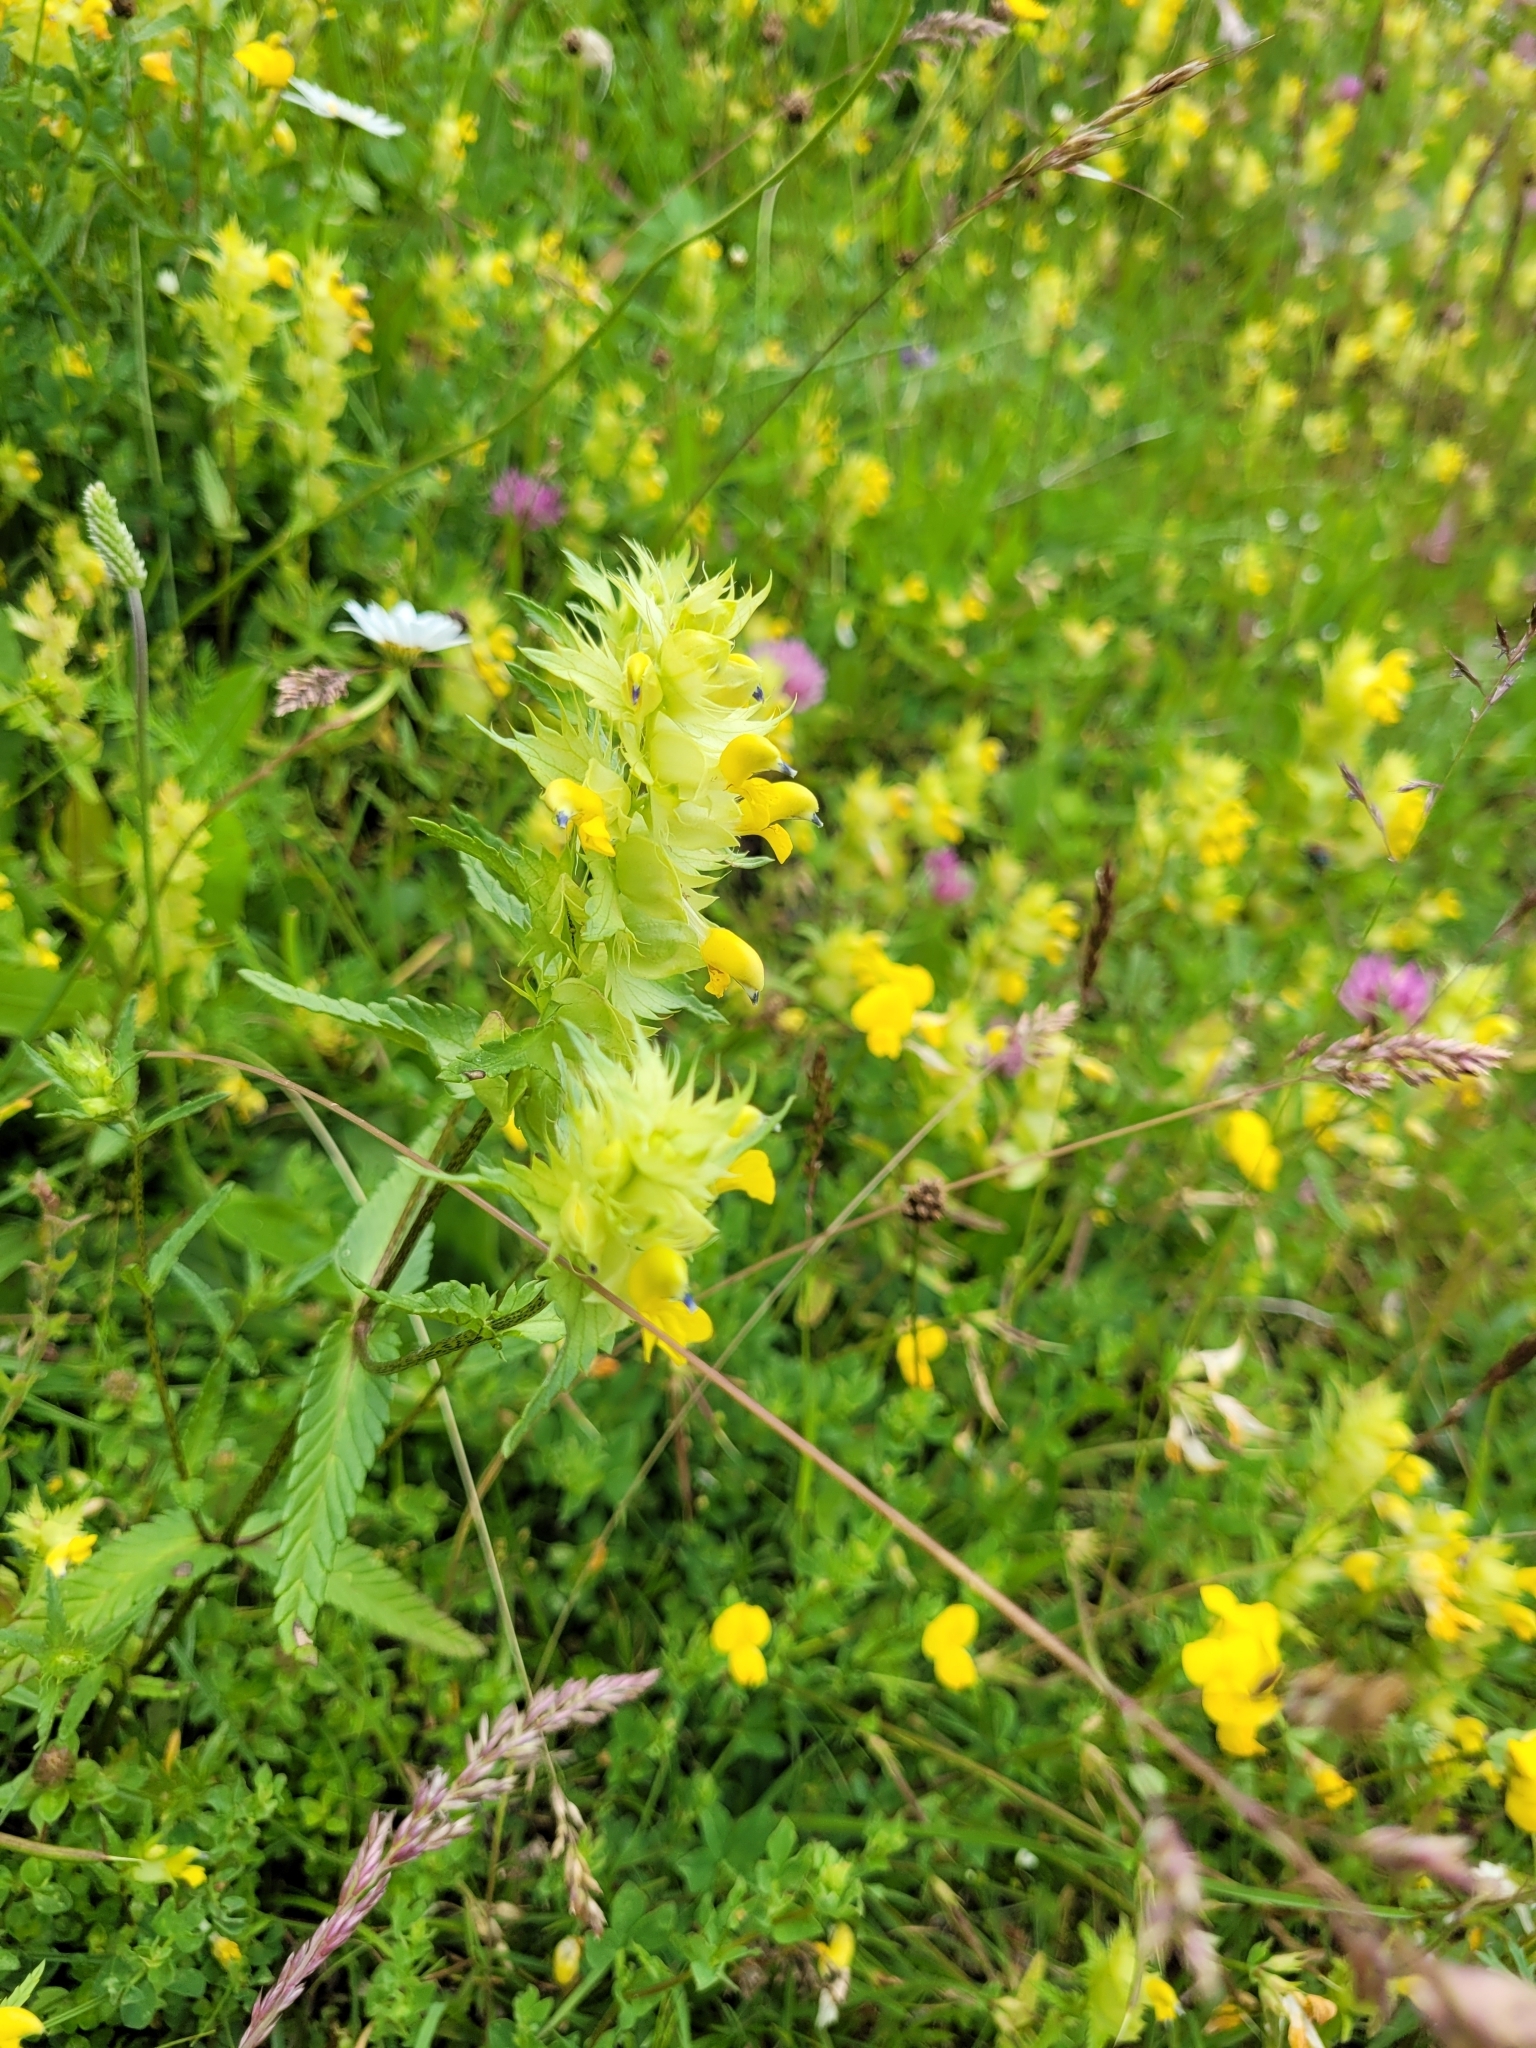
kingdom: Plantae
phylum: Tracheophyta
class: Magnoliopsida
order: Lamiales
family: Orobanchaceae
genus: Rhinanthus
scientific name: Rhinanthus glacialis
